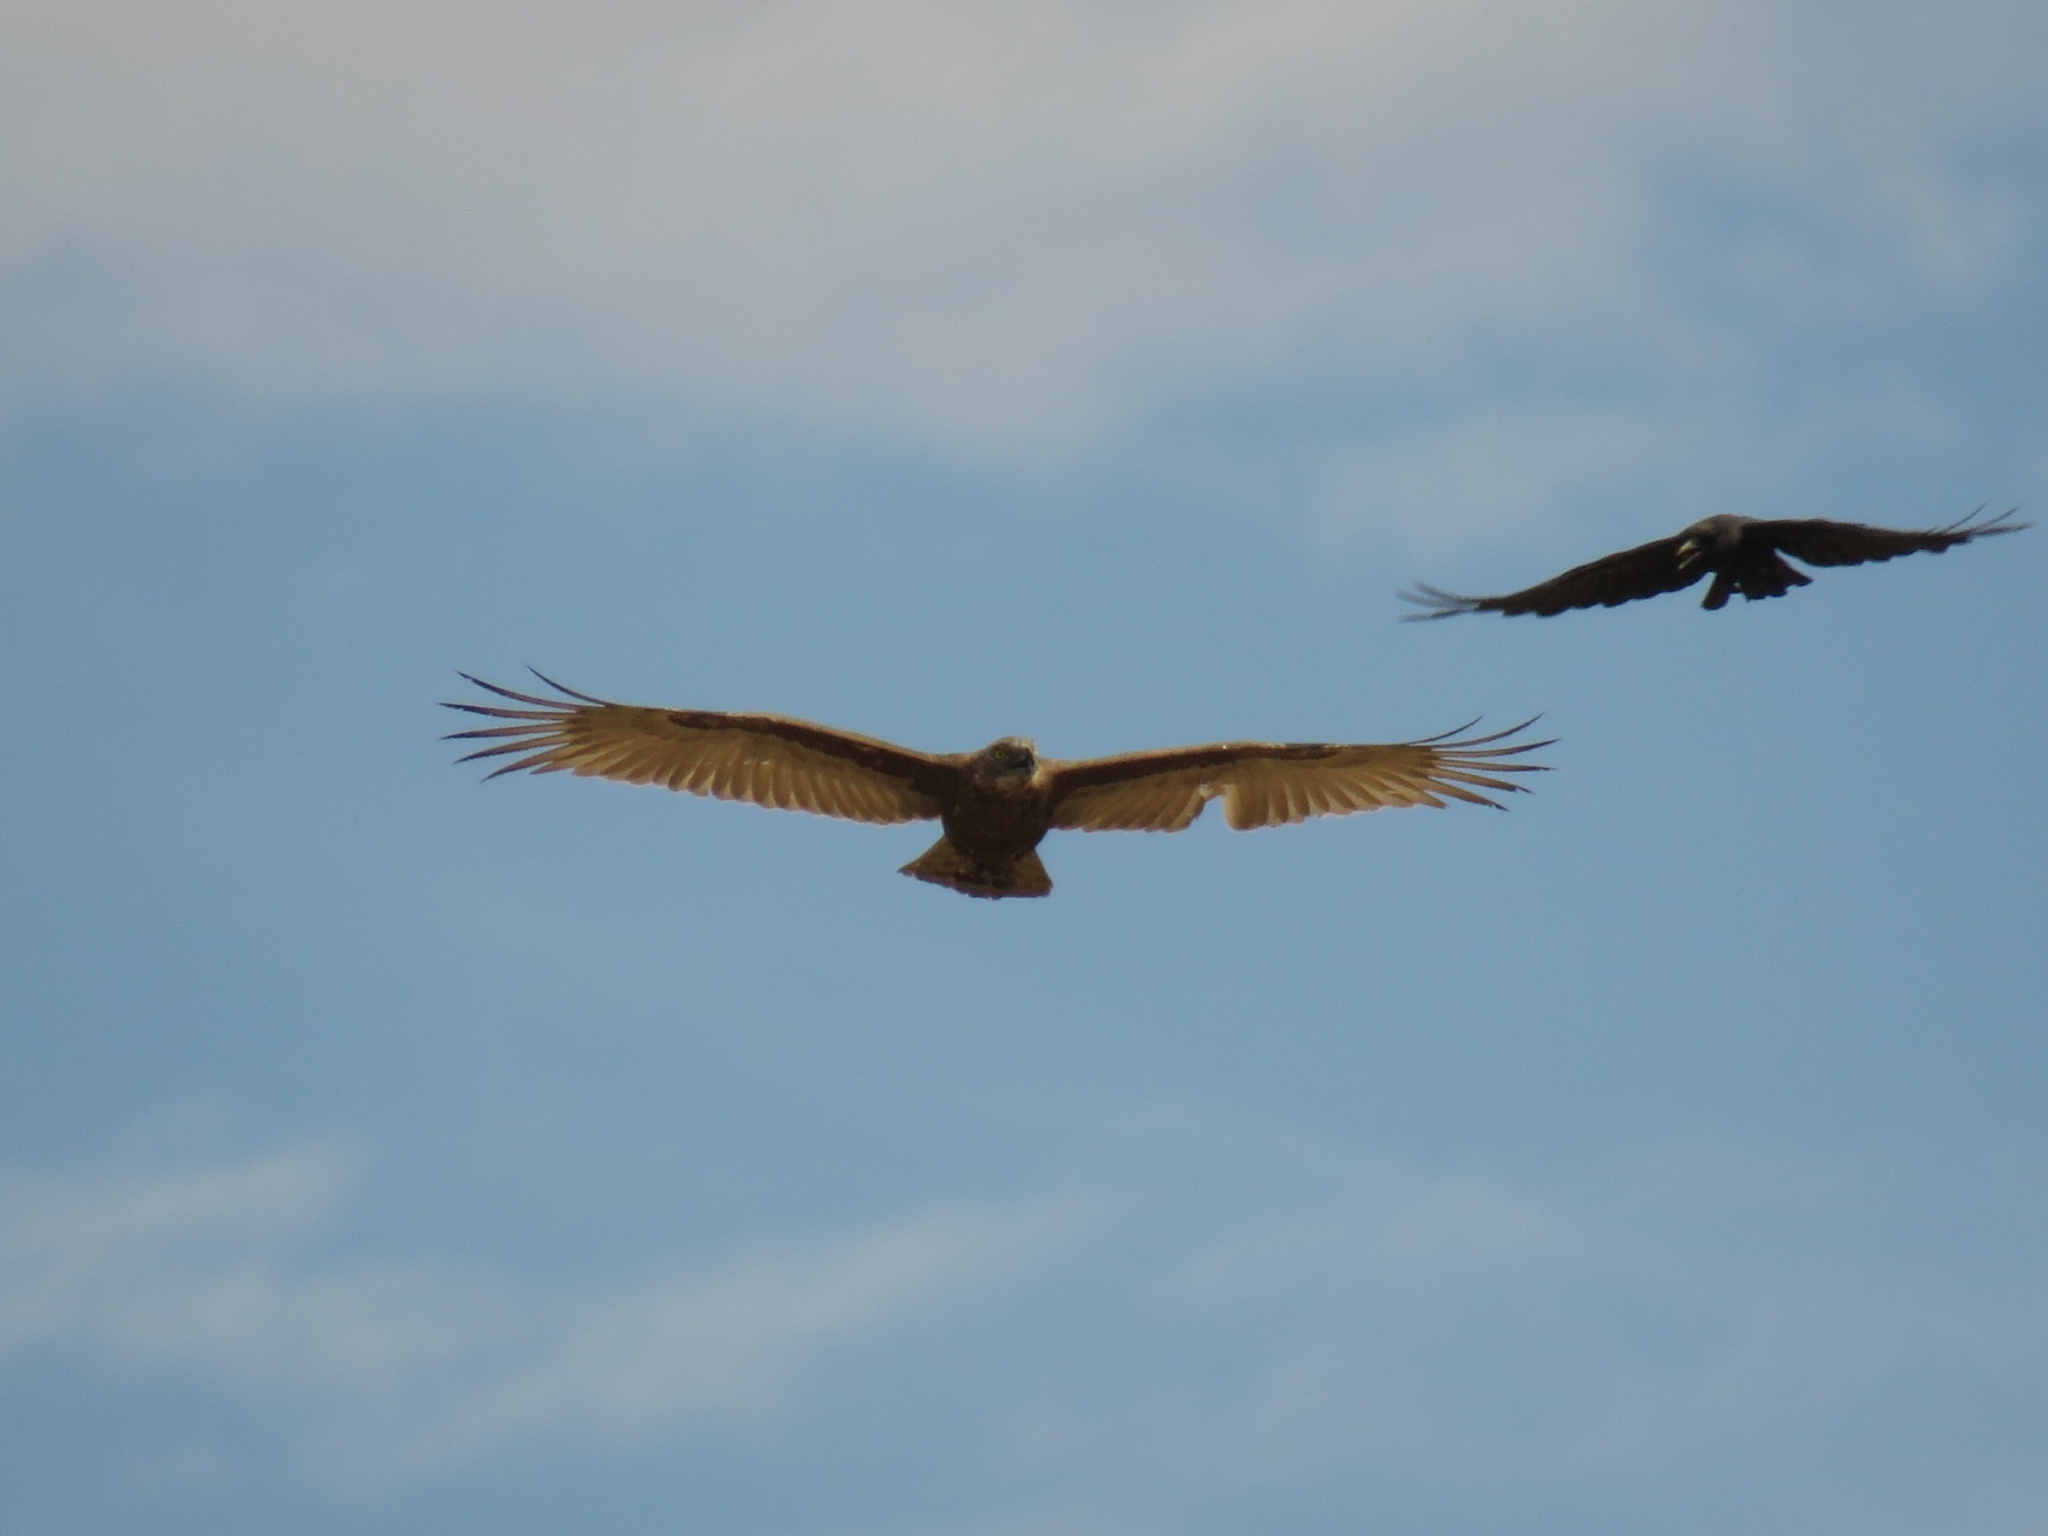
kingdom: Animalia
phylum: Chordata
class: Aves
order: Accipitriformes
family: Accipitridae
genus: Circaetus
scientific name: Circaetus cinereus
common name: Brown snake eagle
